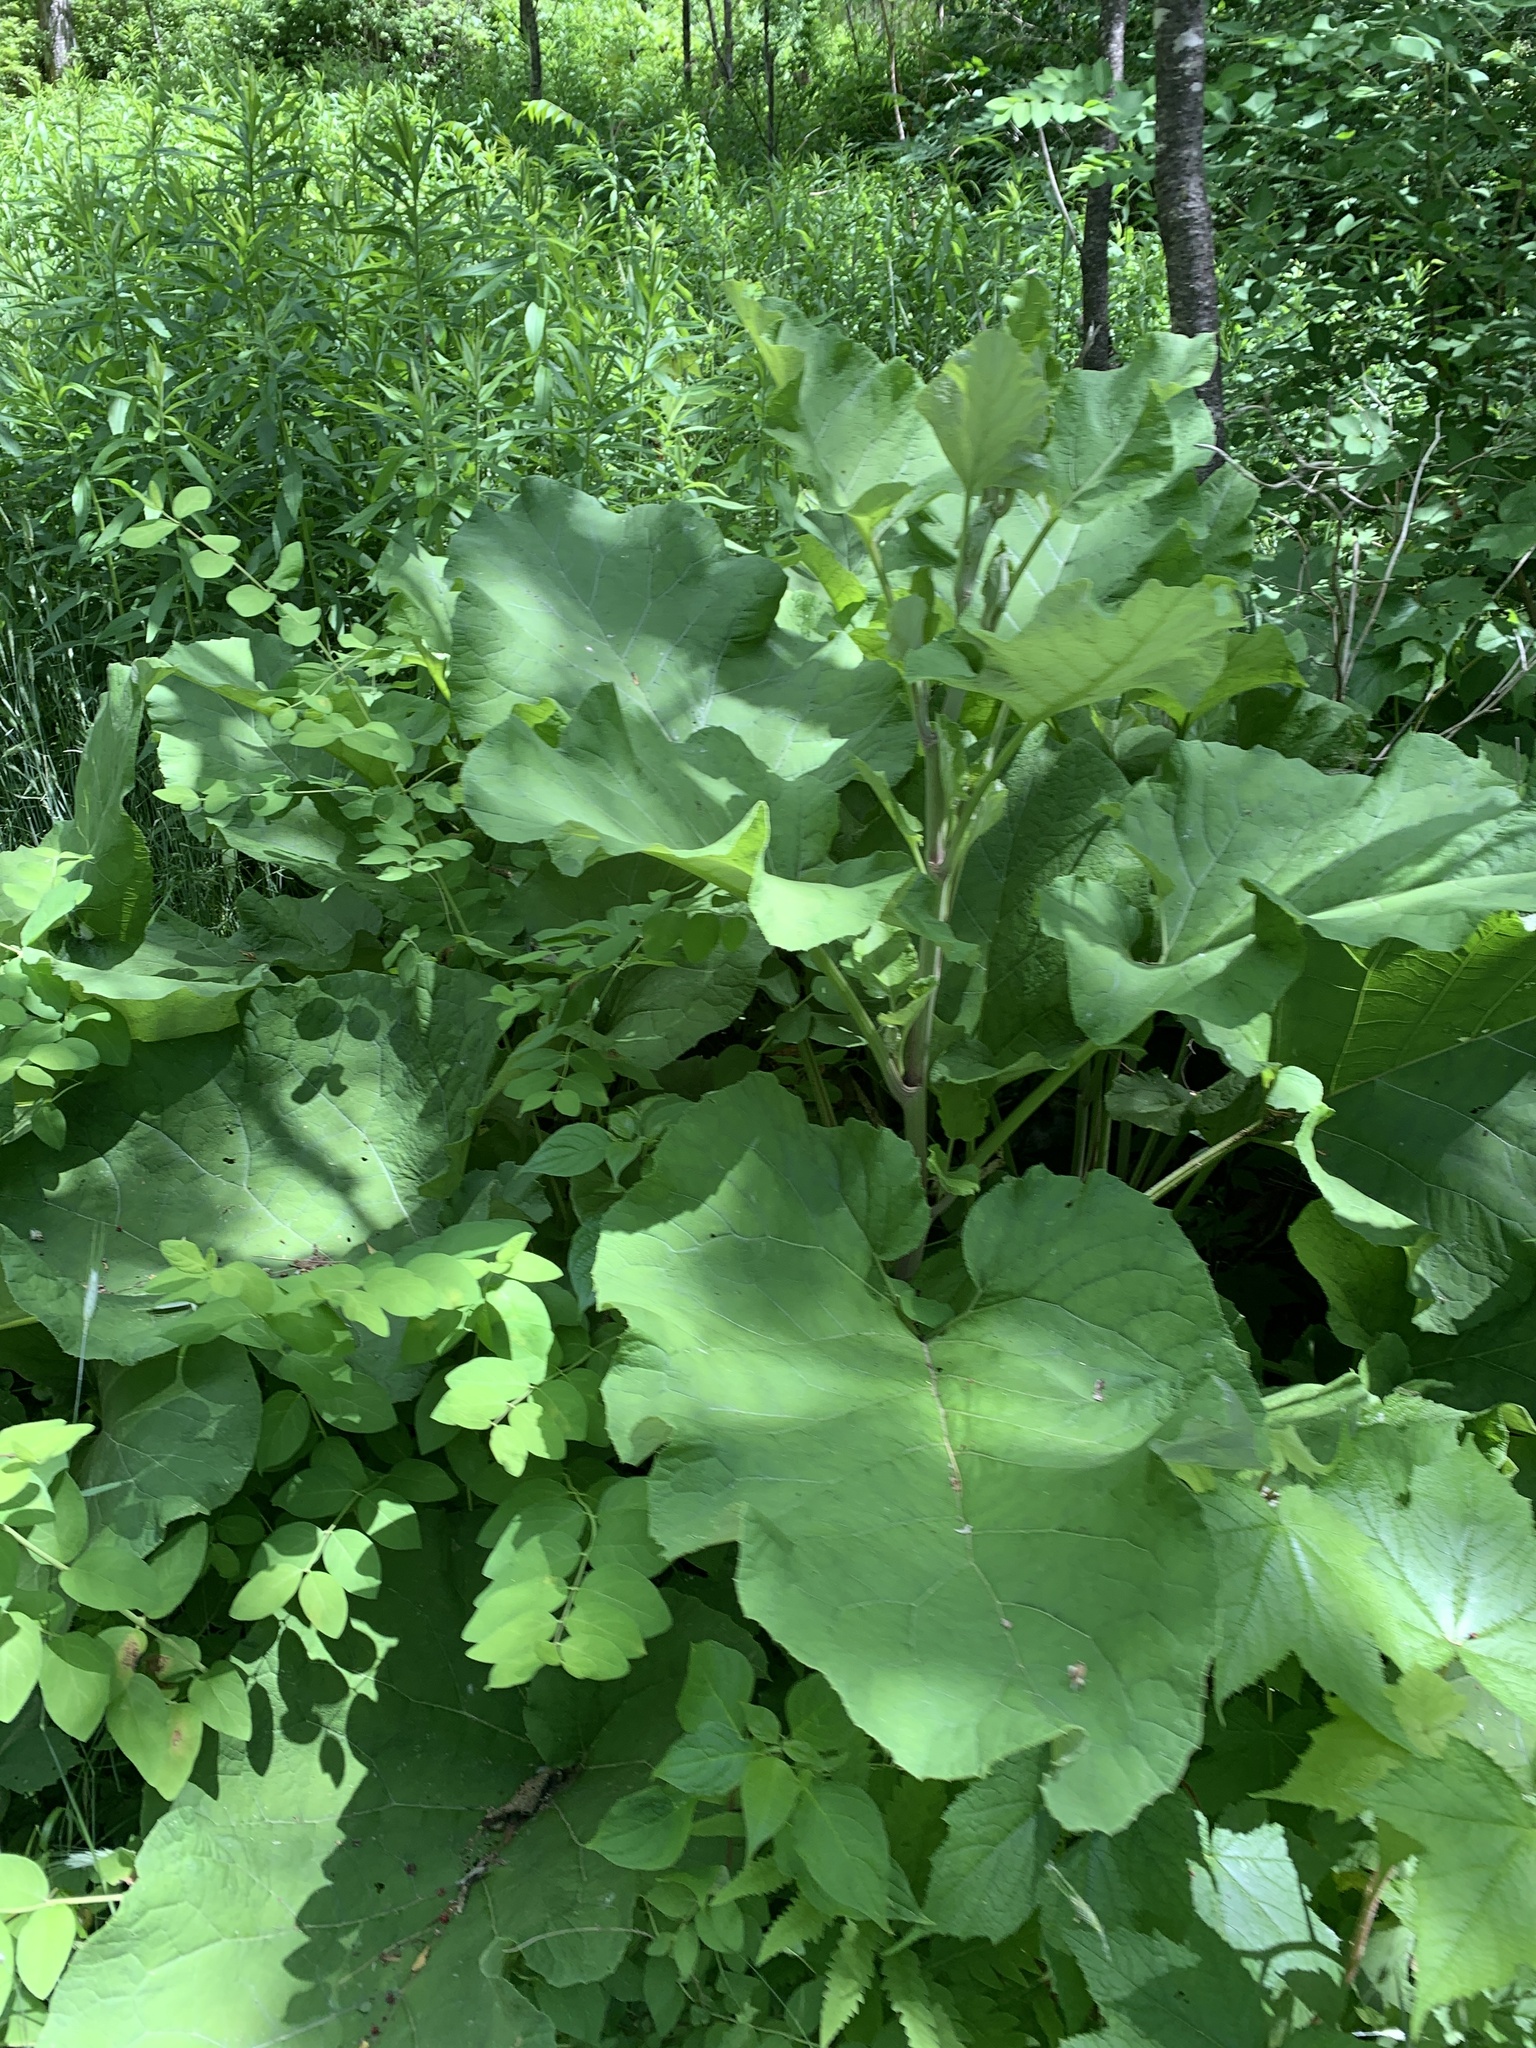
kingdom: Plantae
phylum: Tracheophyta
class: Magnoliopsida
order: Asterales
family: Asteraceae
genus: Arctium
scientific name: Arctium
